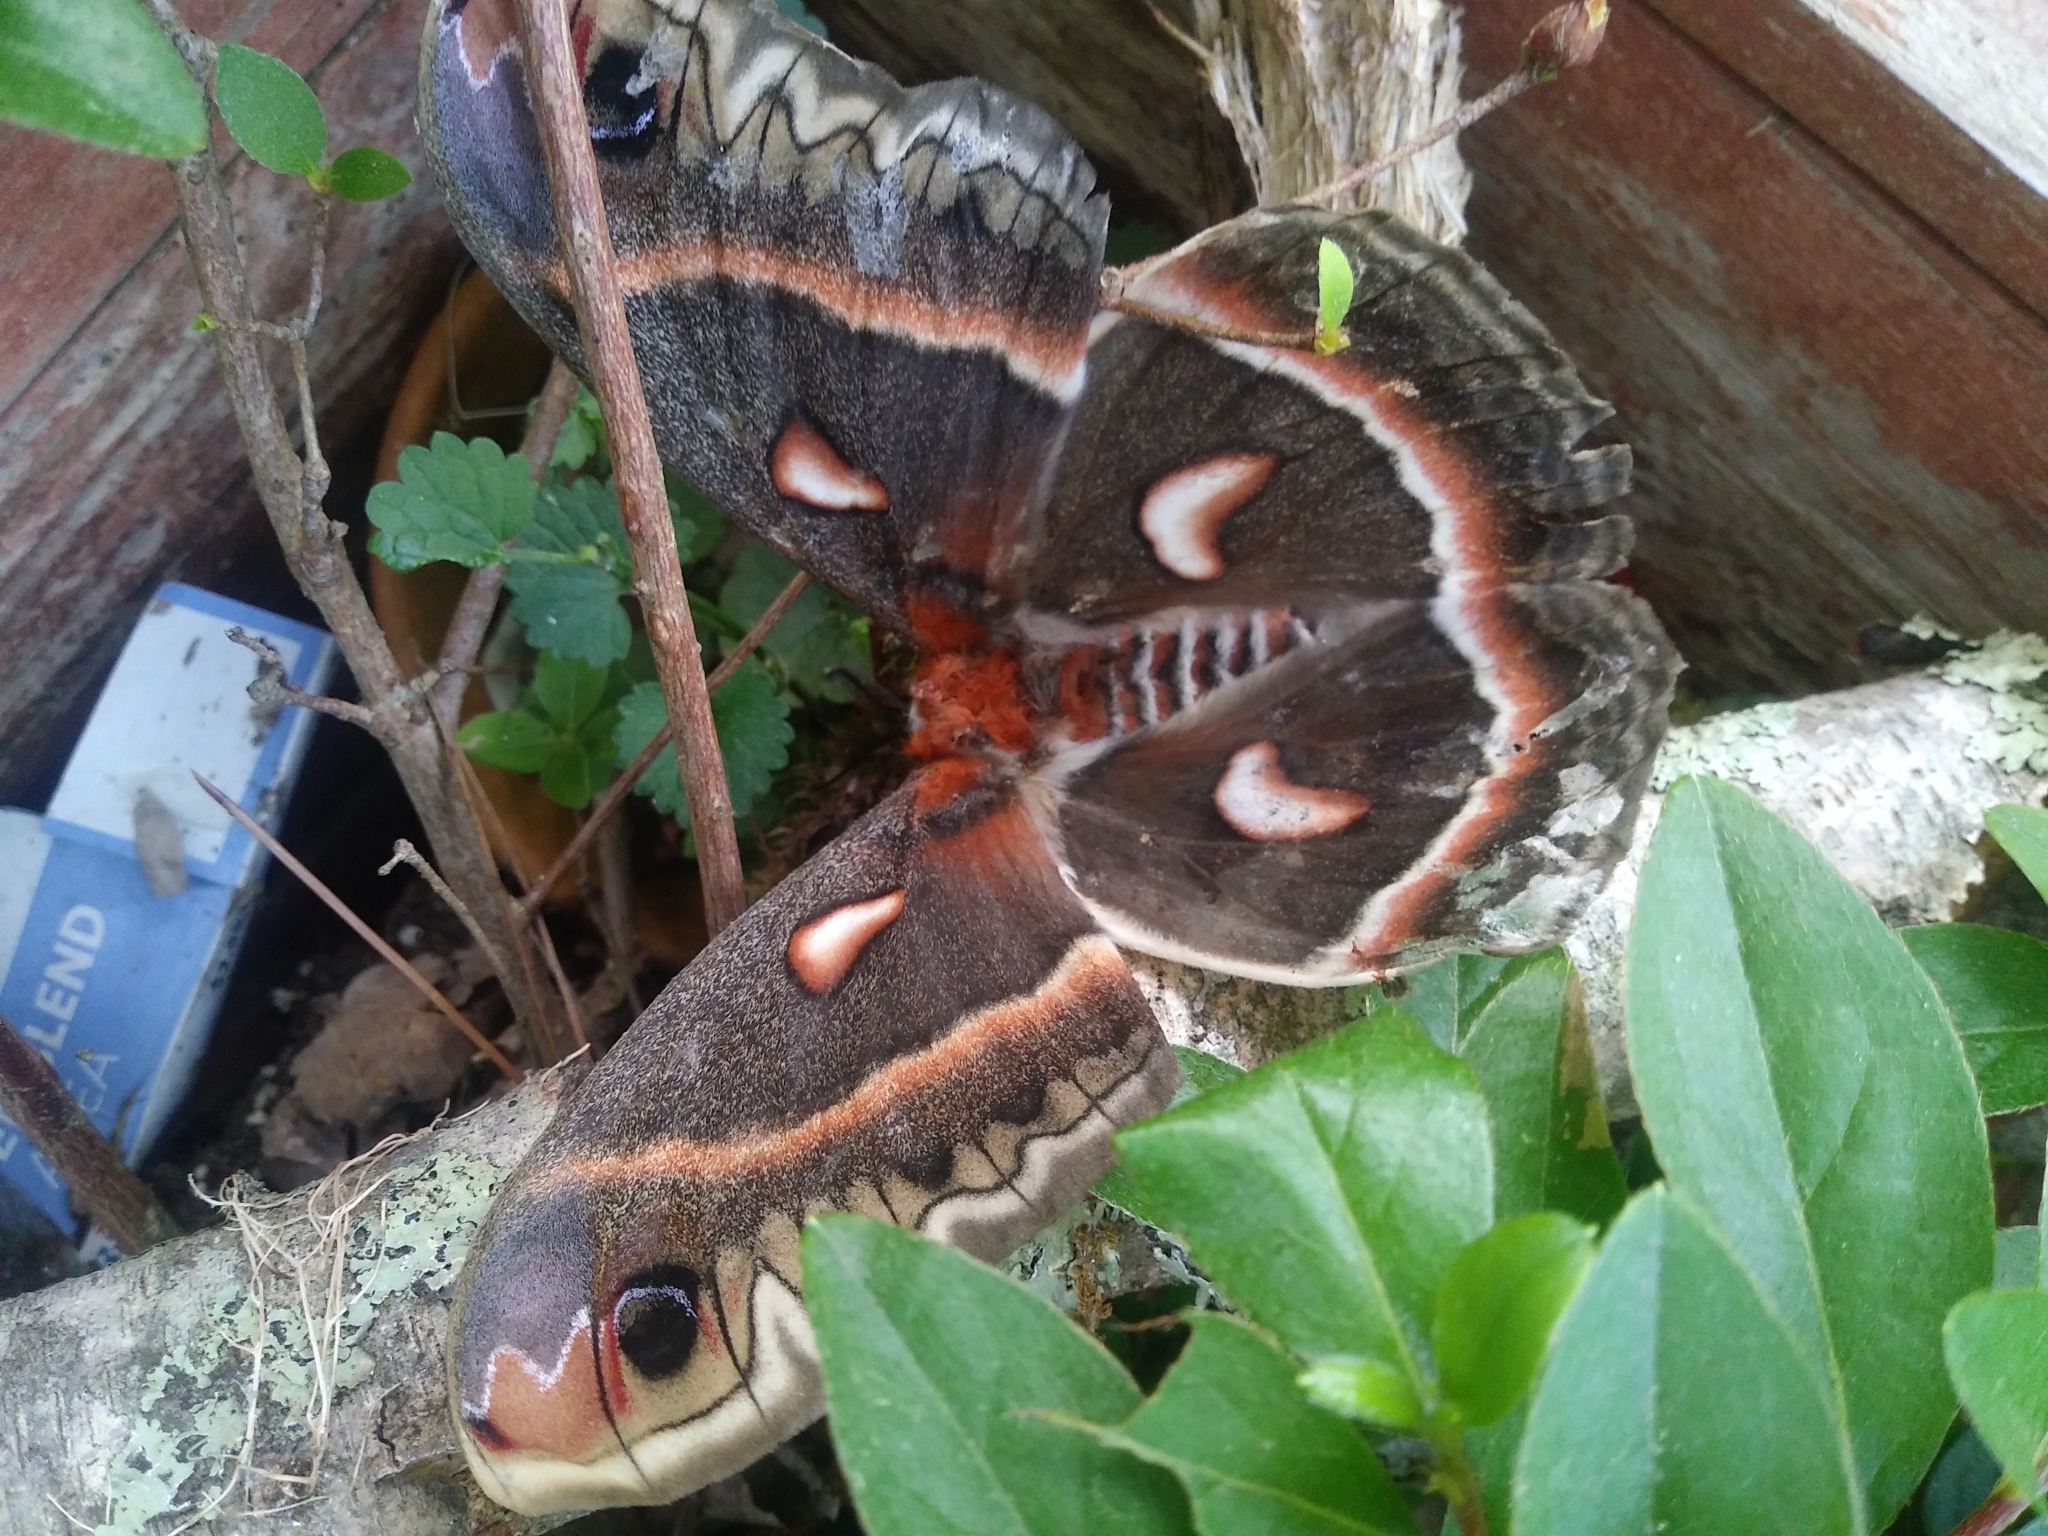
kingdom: Animalia
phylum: Arthropoda
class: Insecta
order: Lepidoptera
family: Saturniidae
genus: Hyalophora
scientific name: Hyalophora cecropia
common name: Cecropia silkmoth
